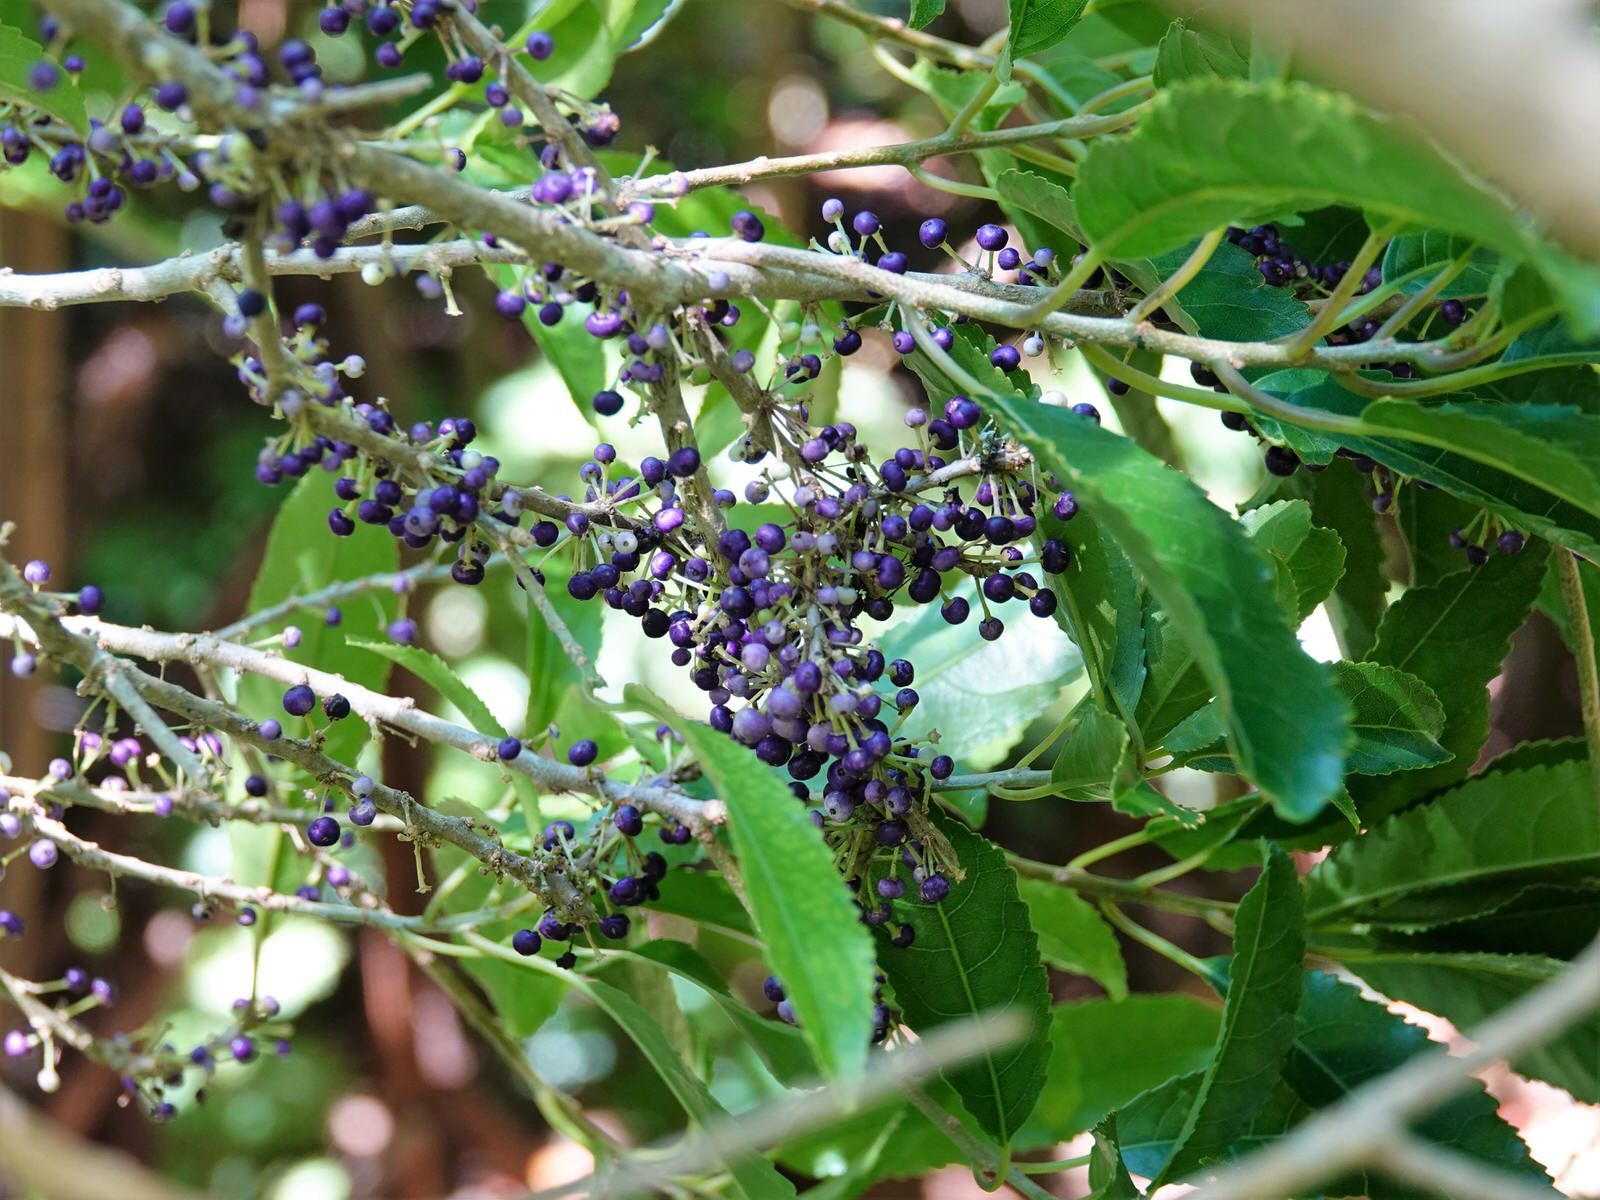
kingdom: Plantae
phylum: Tracheophyta
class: Magnoliopsida
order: Malpighiales
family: Violaceae
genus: Melicytus
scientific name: Melicytus ramiflorus
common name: Mahoe
